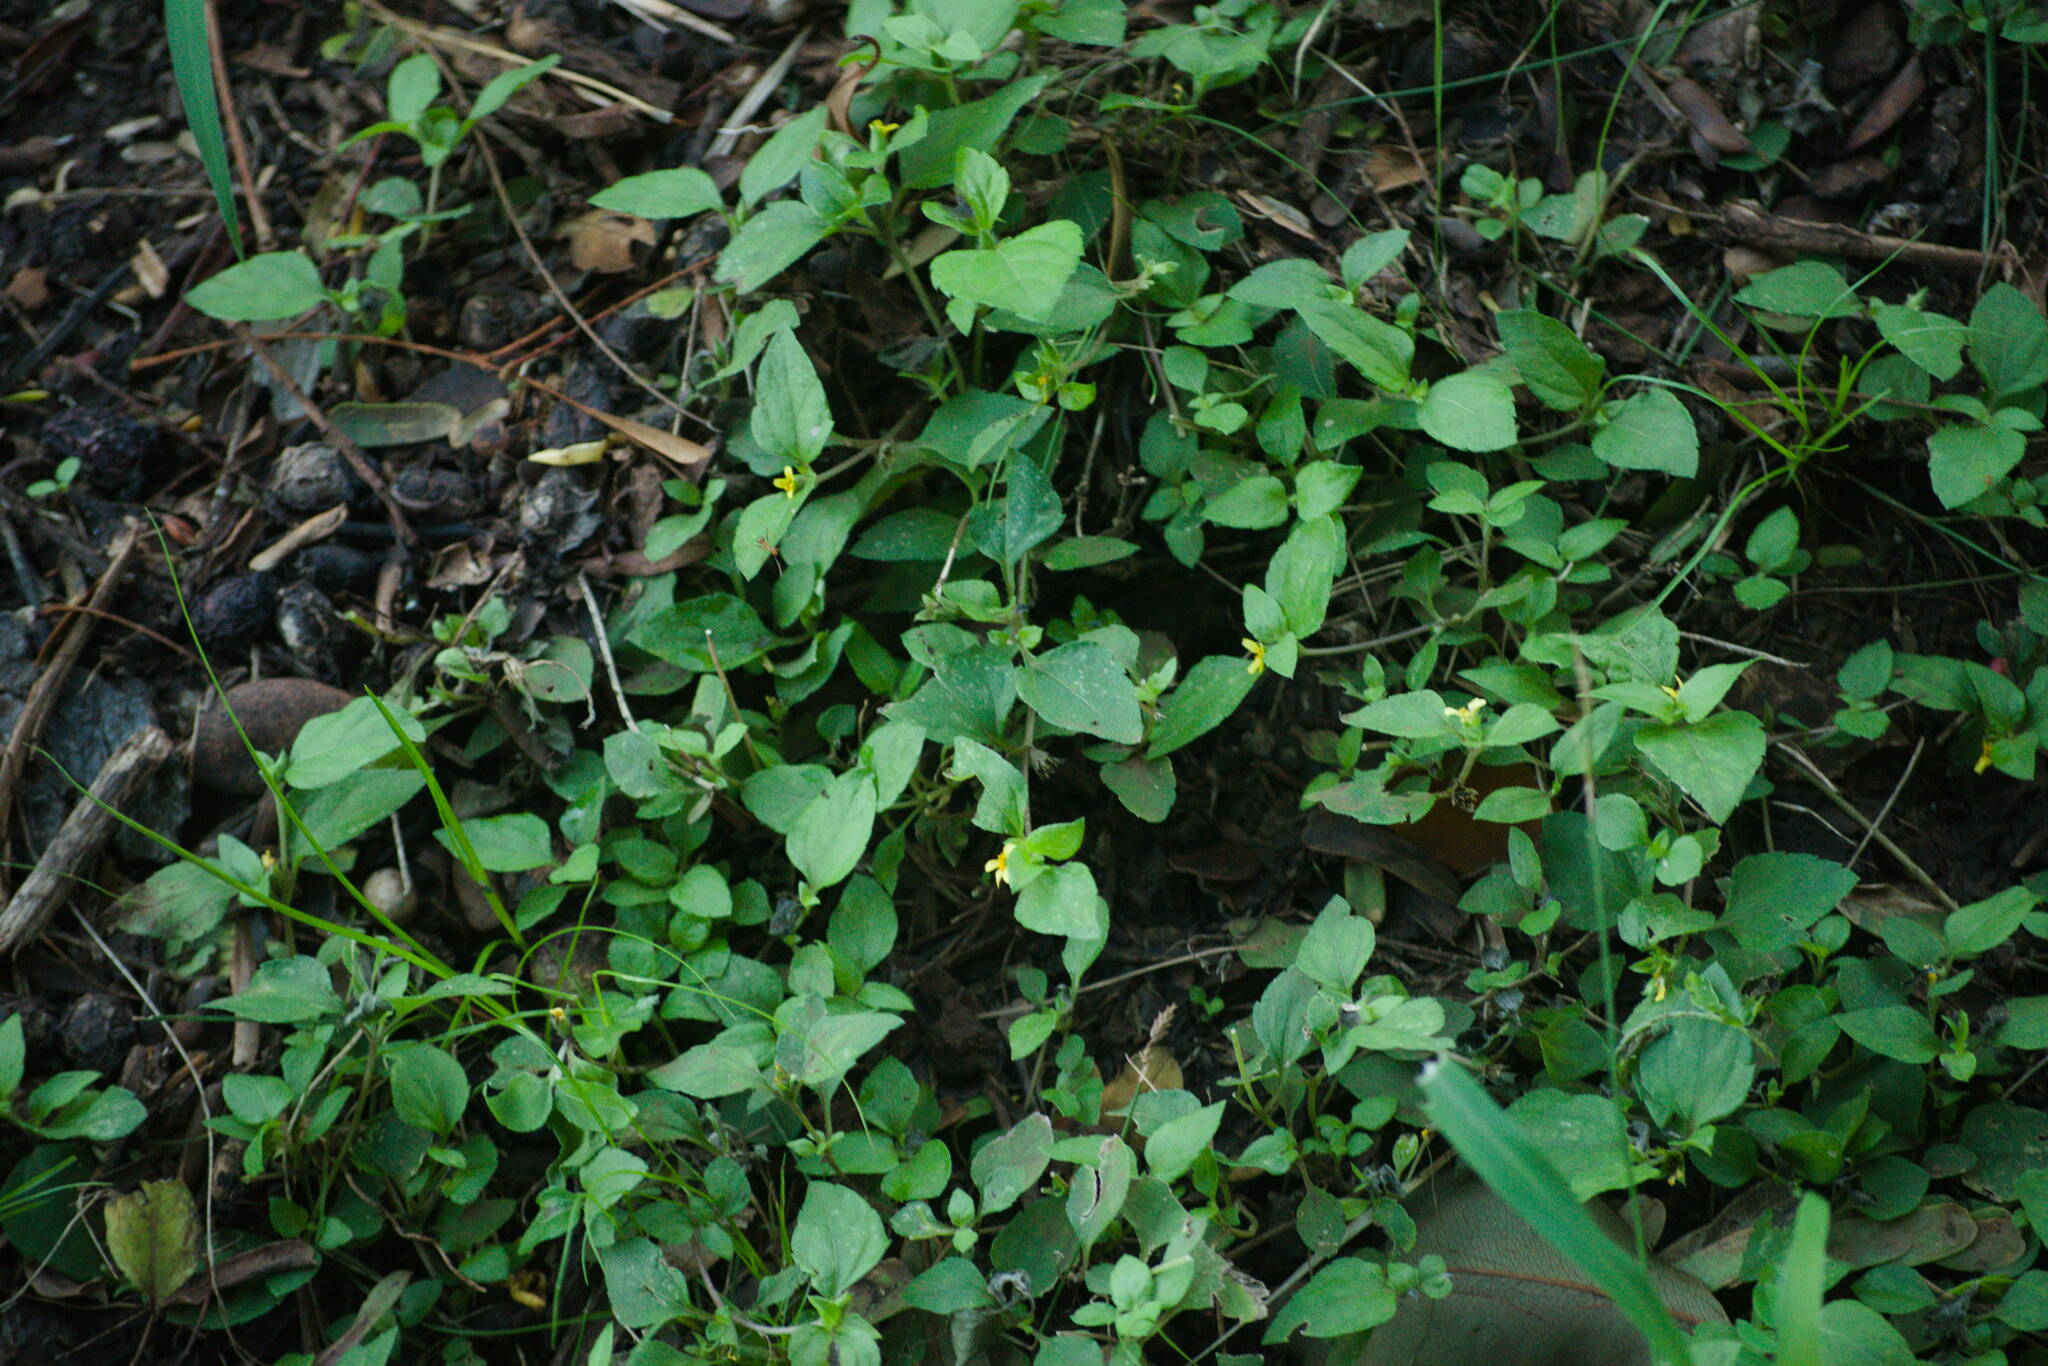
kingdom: Plantae
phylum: Tracheophyta
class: Magnoliopsida
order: Asterales
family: Asteraceae
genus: Calyptocarpus
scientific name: Calyptocarpus vialis
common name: Straggler daisy
